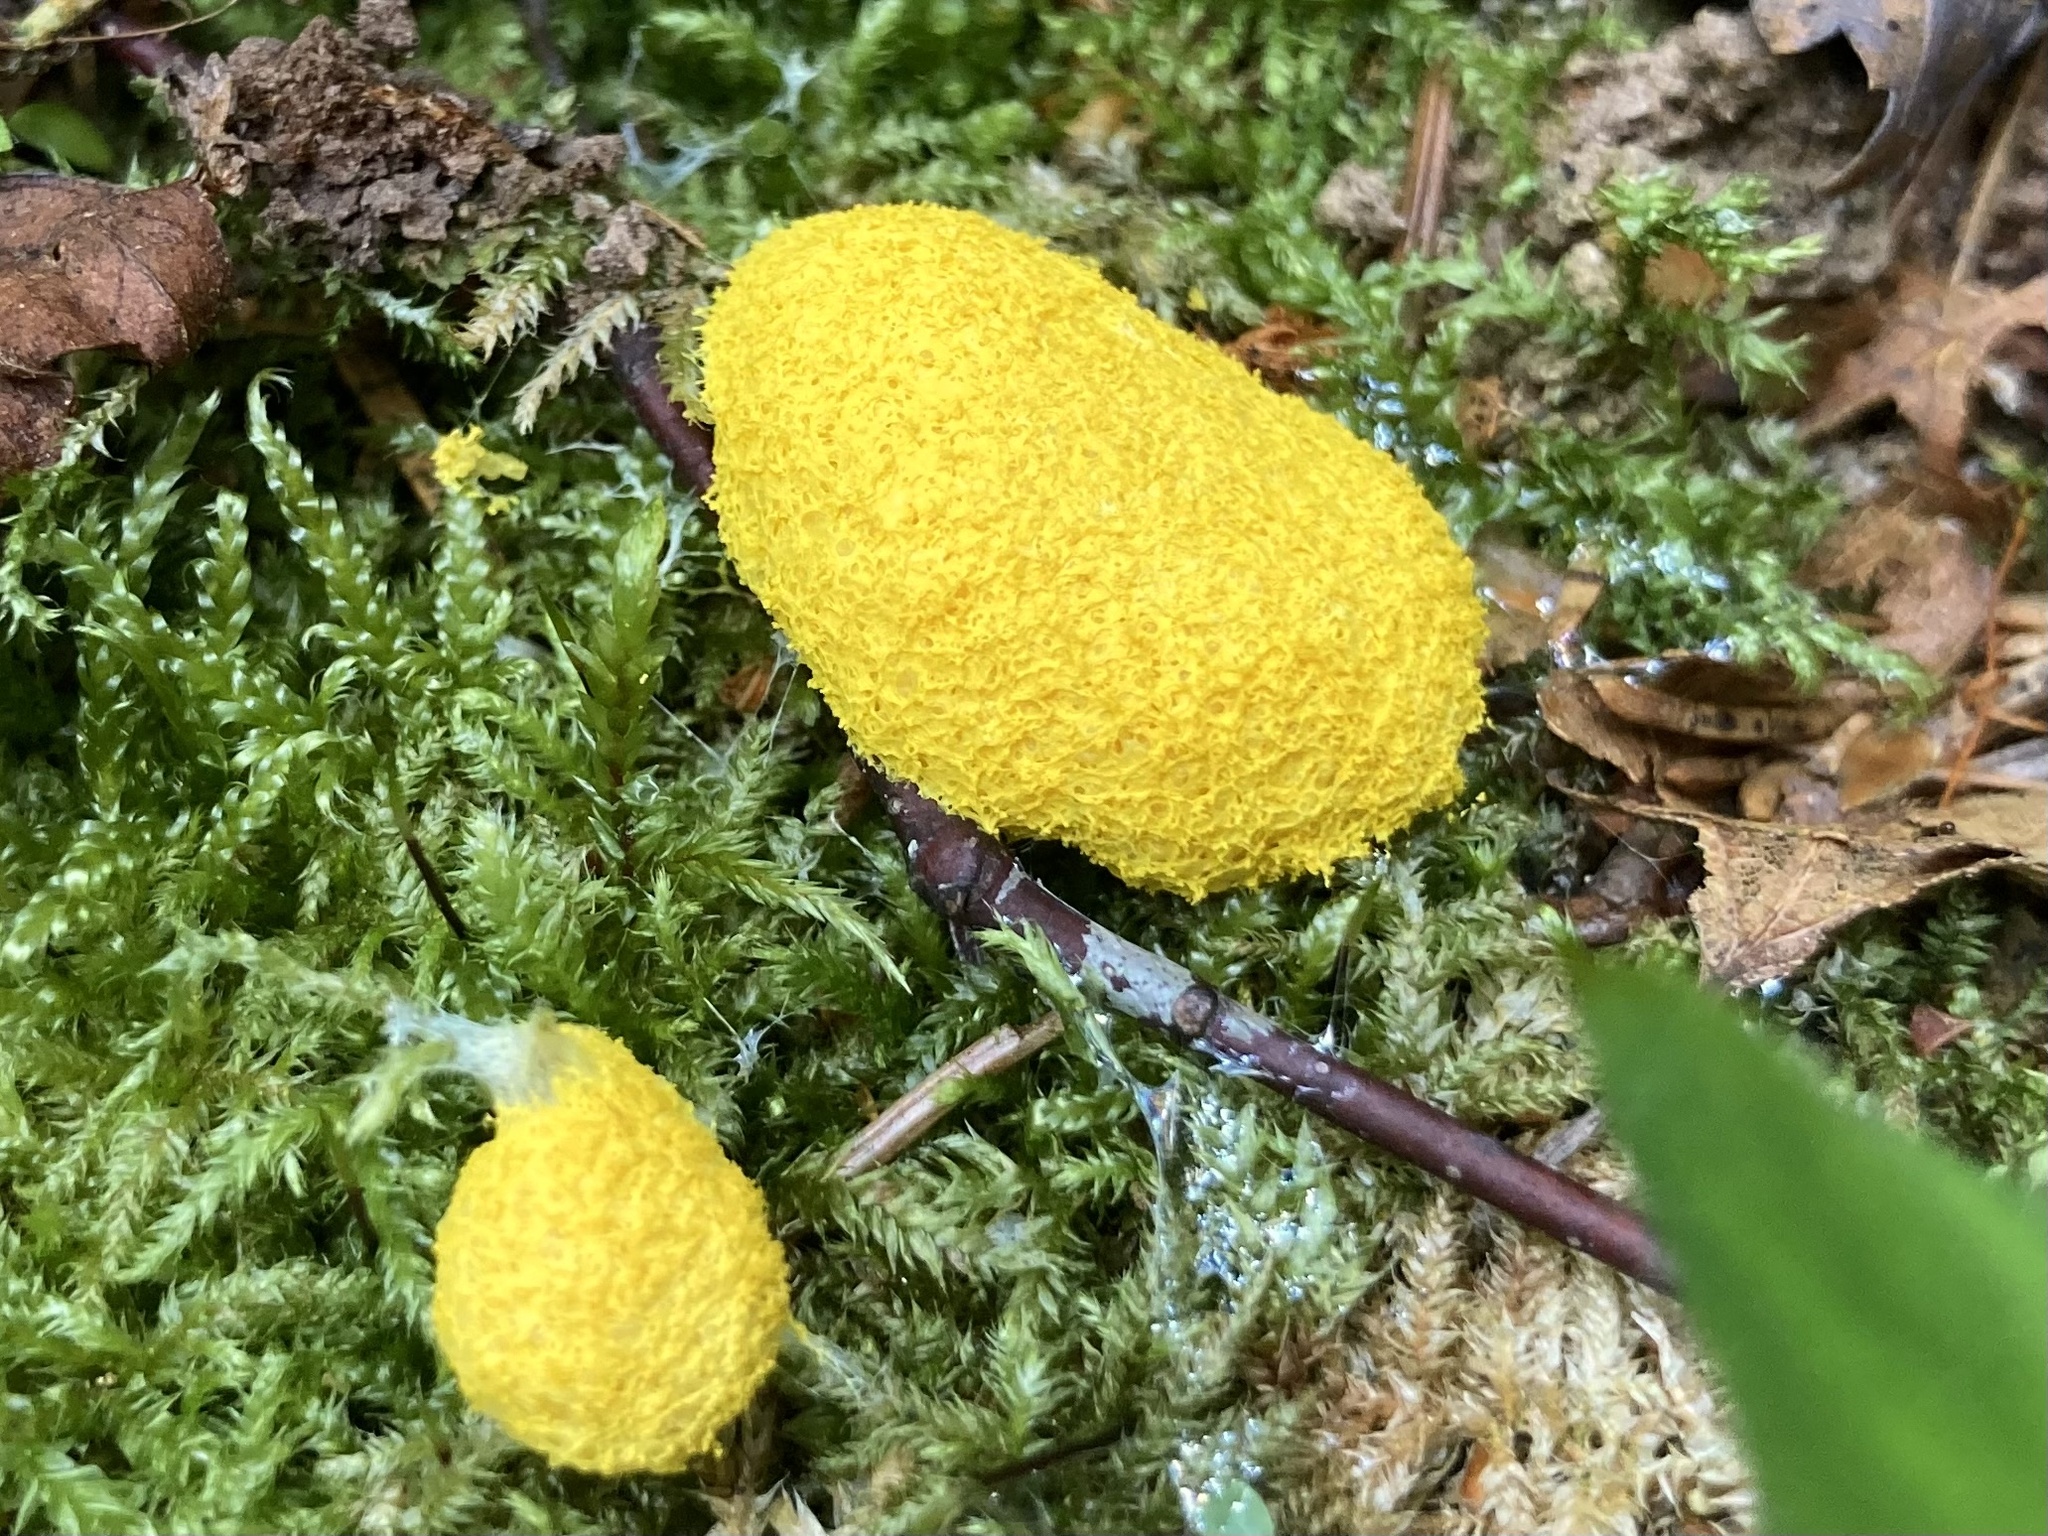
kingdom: Protozoa
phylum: Mycetozoa
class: Myxomycetes
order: Physarales
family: Physaraceae
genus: Fuligo
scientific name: Fuligo septica
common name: Dog vomit slime mold
